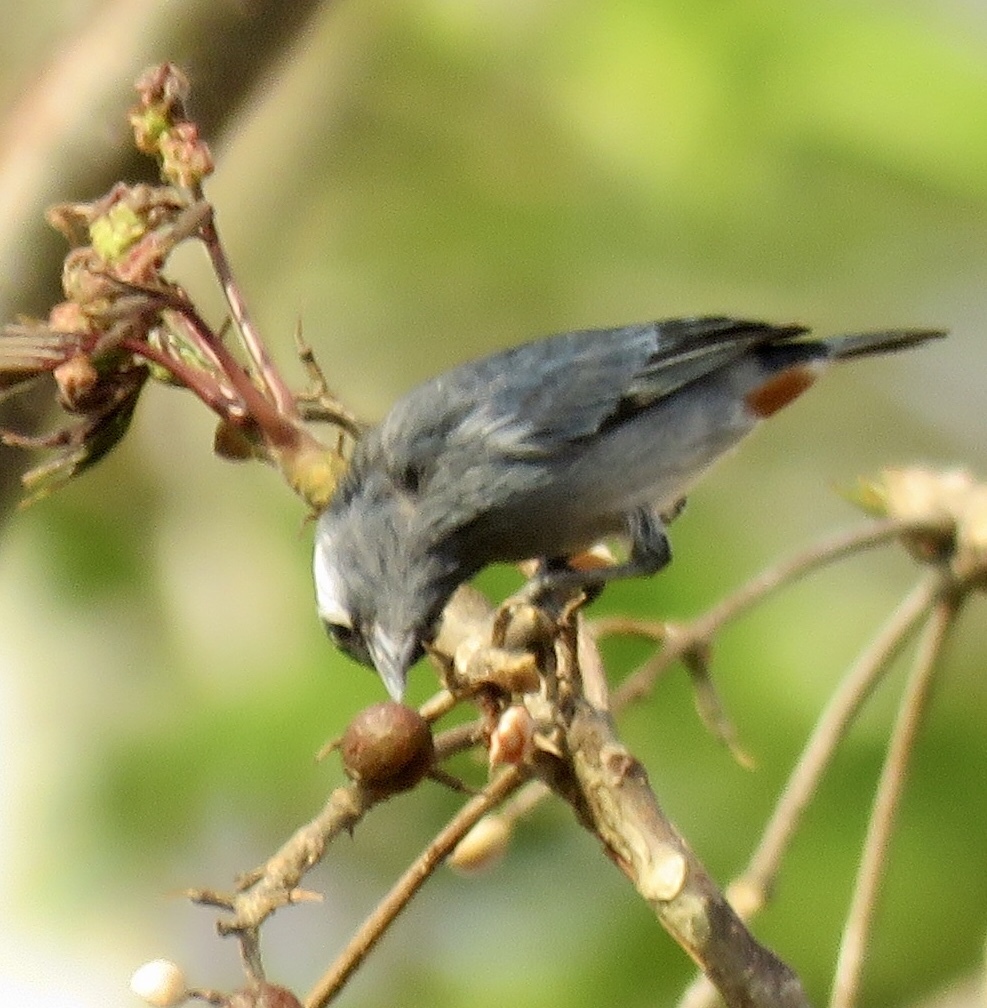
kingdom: Animalia
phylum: Chordata
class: Aves
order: Passeriformes
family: Thraupidae
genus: Conirostrum
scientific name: Conirostrum leucogenys
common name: White-eared conebill
